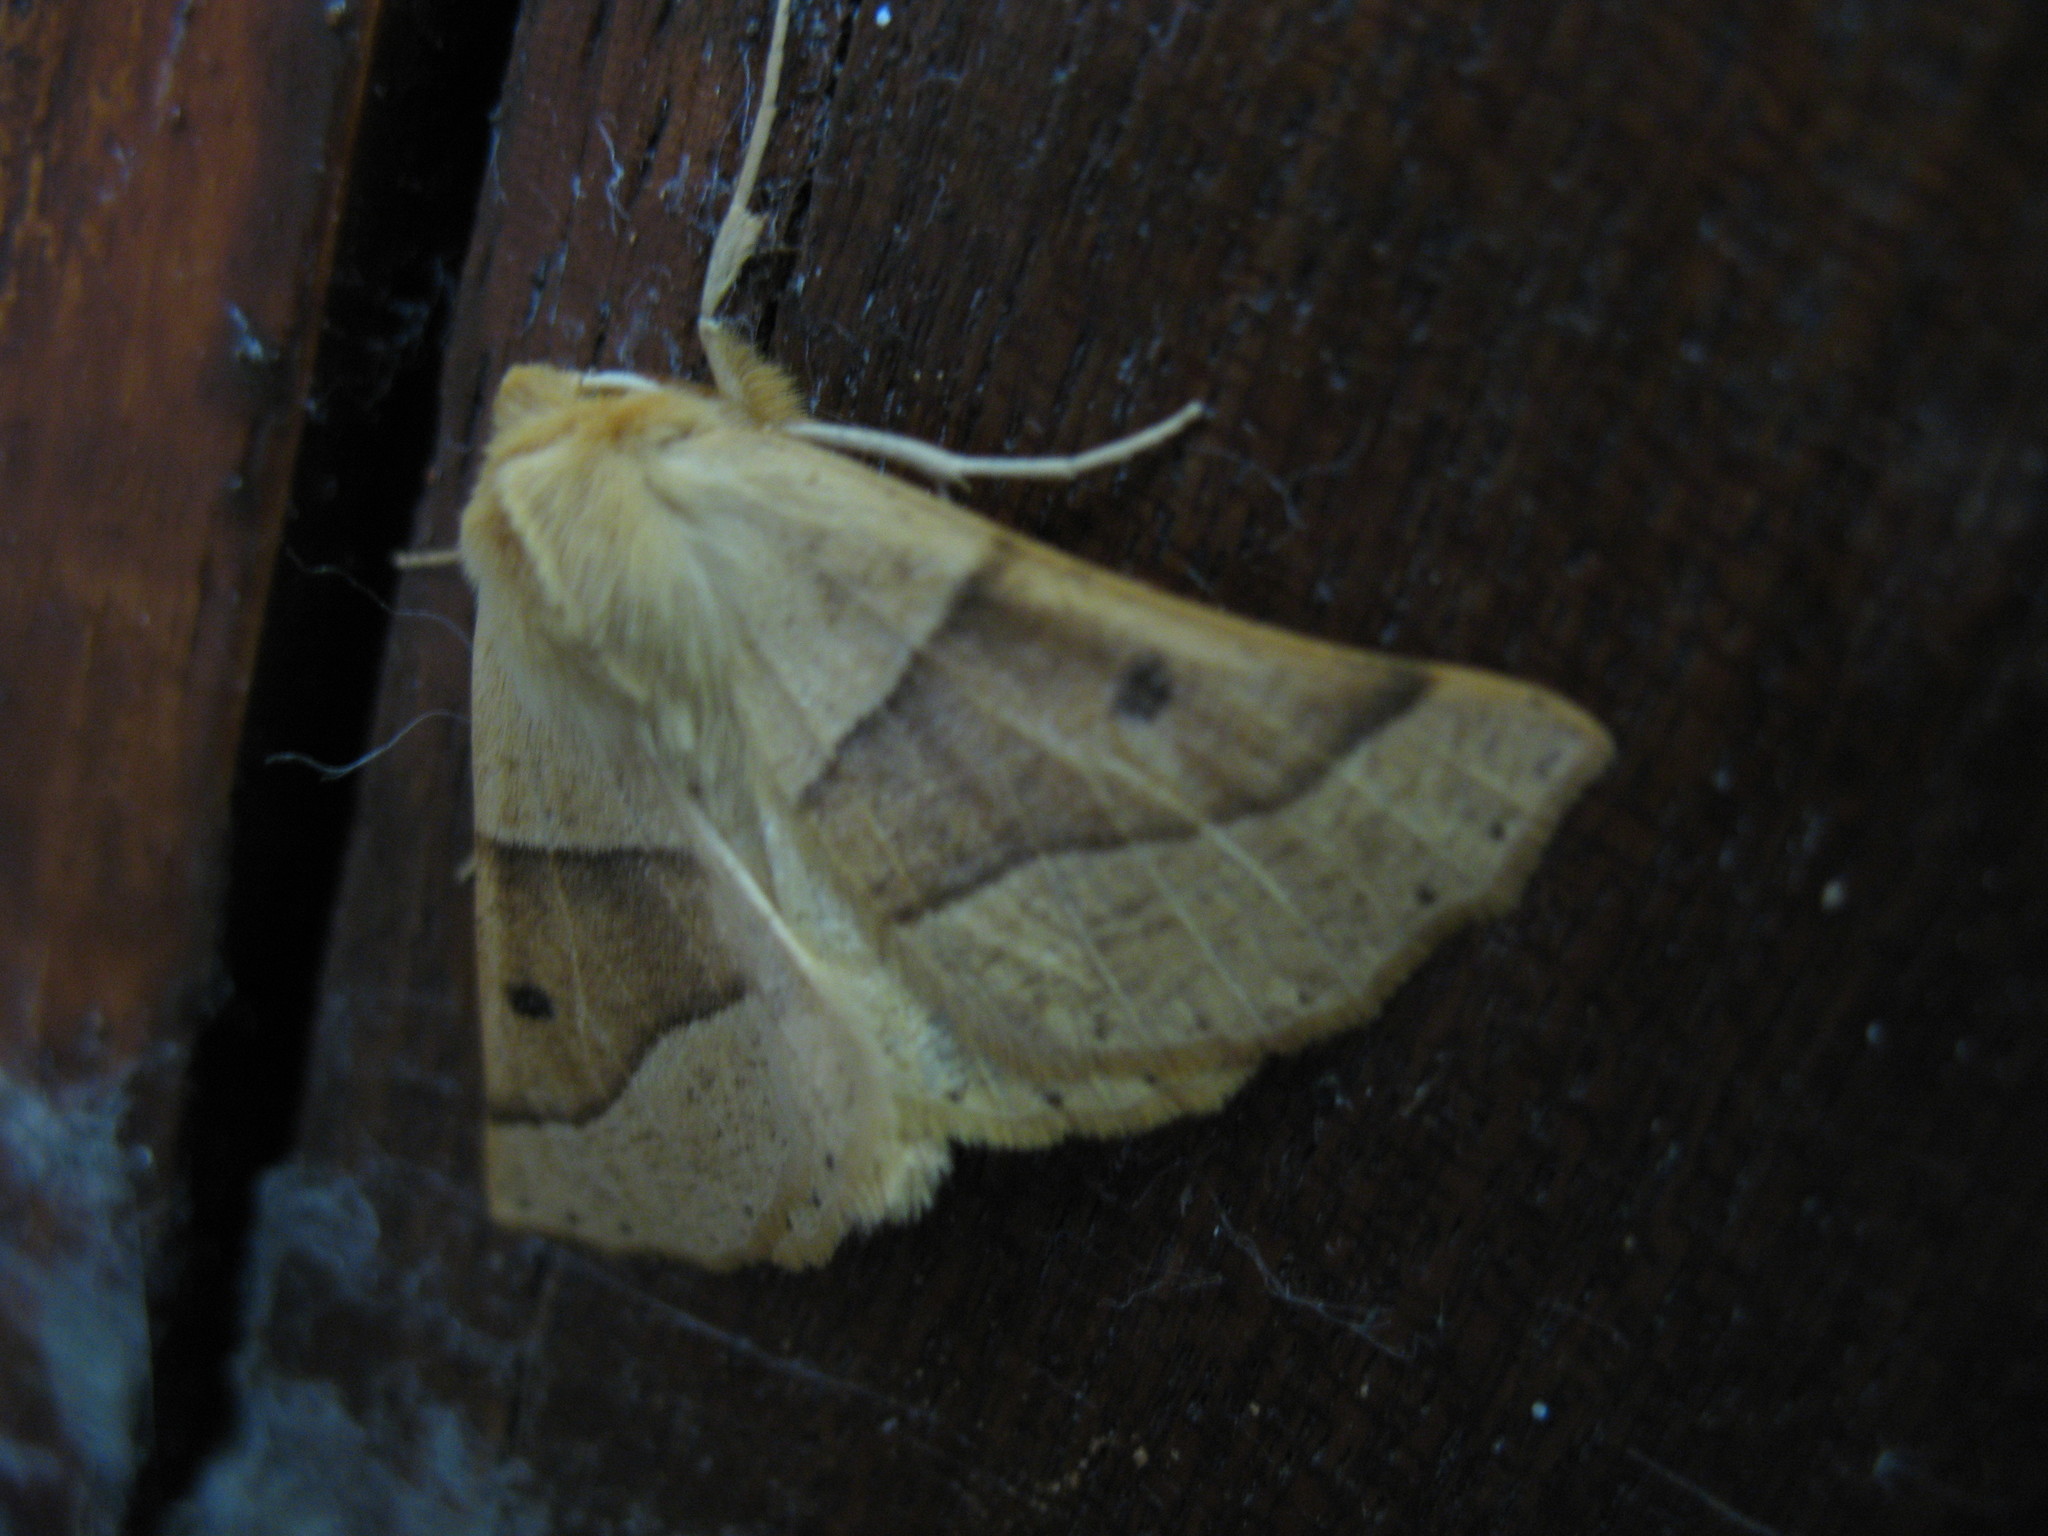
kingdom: Animalia
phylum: Arthropoda
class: Insecta
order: Lepidoptera
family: Geometridae
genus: Crocallis
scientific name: Crocallis elinguaria
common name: Scalloped oak
